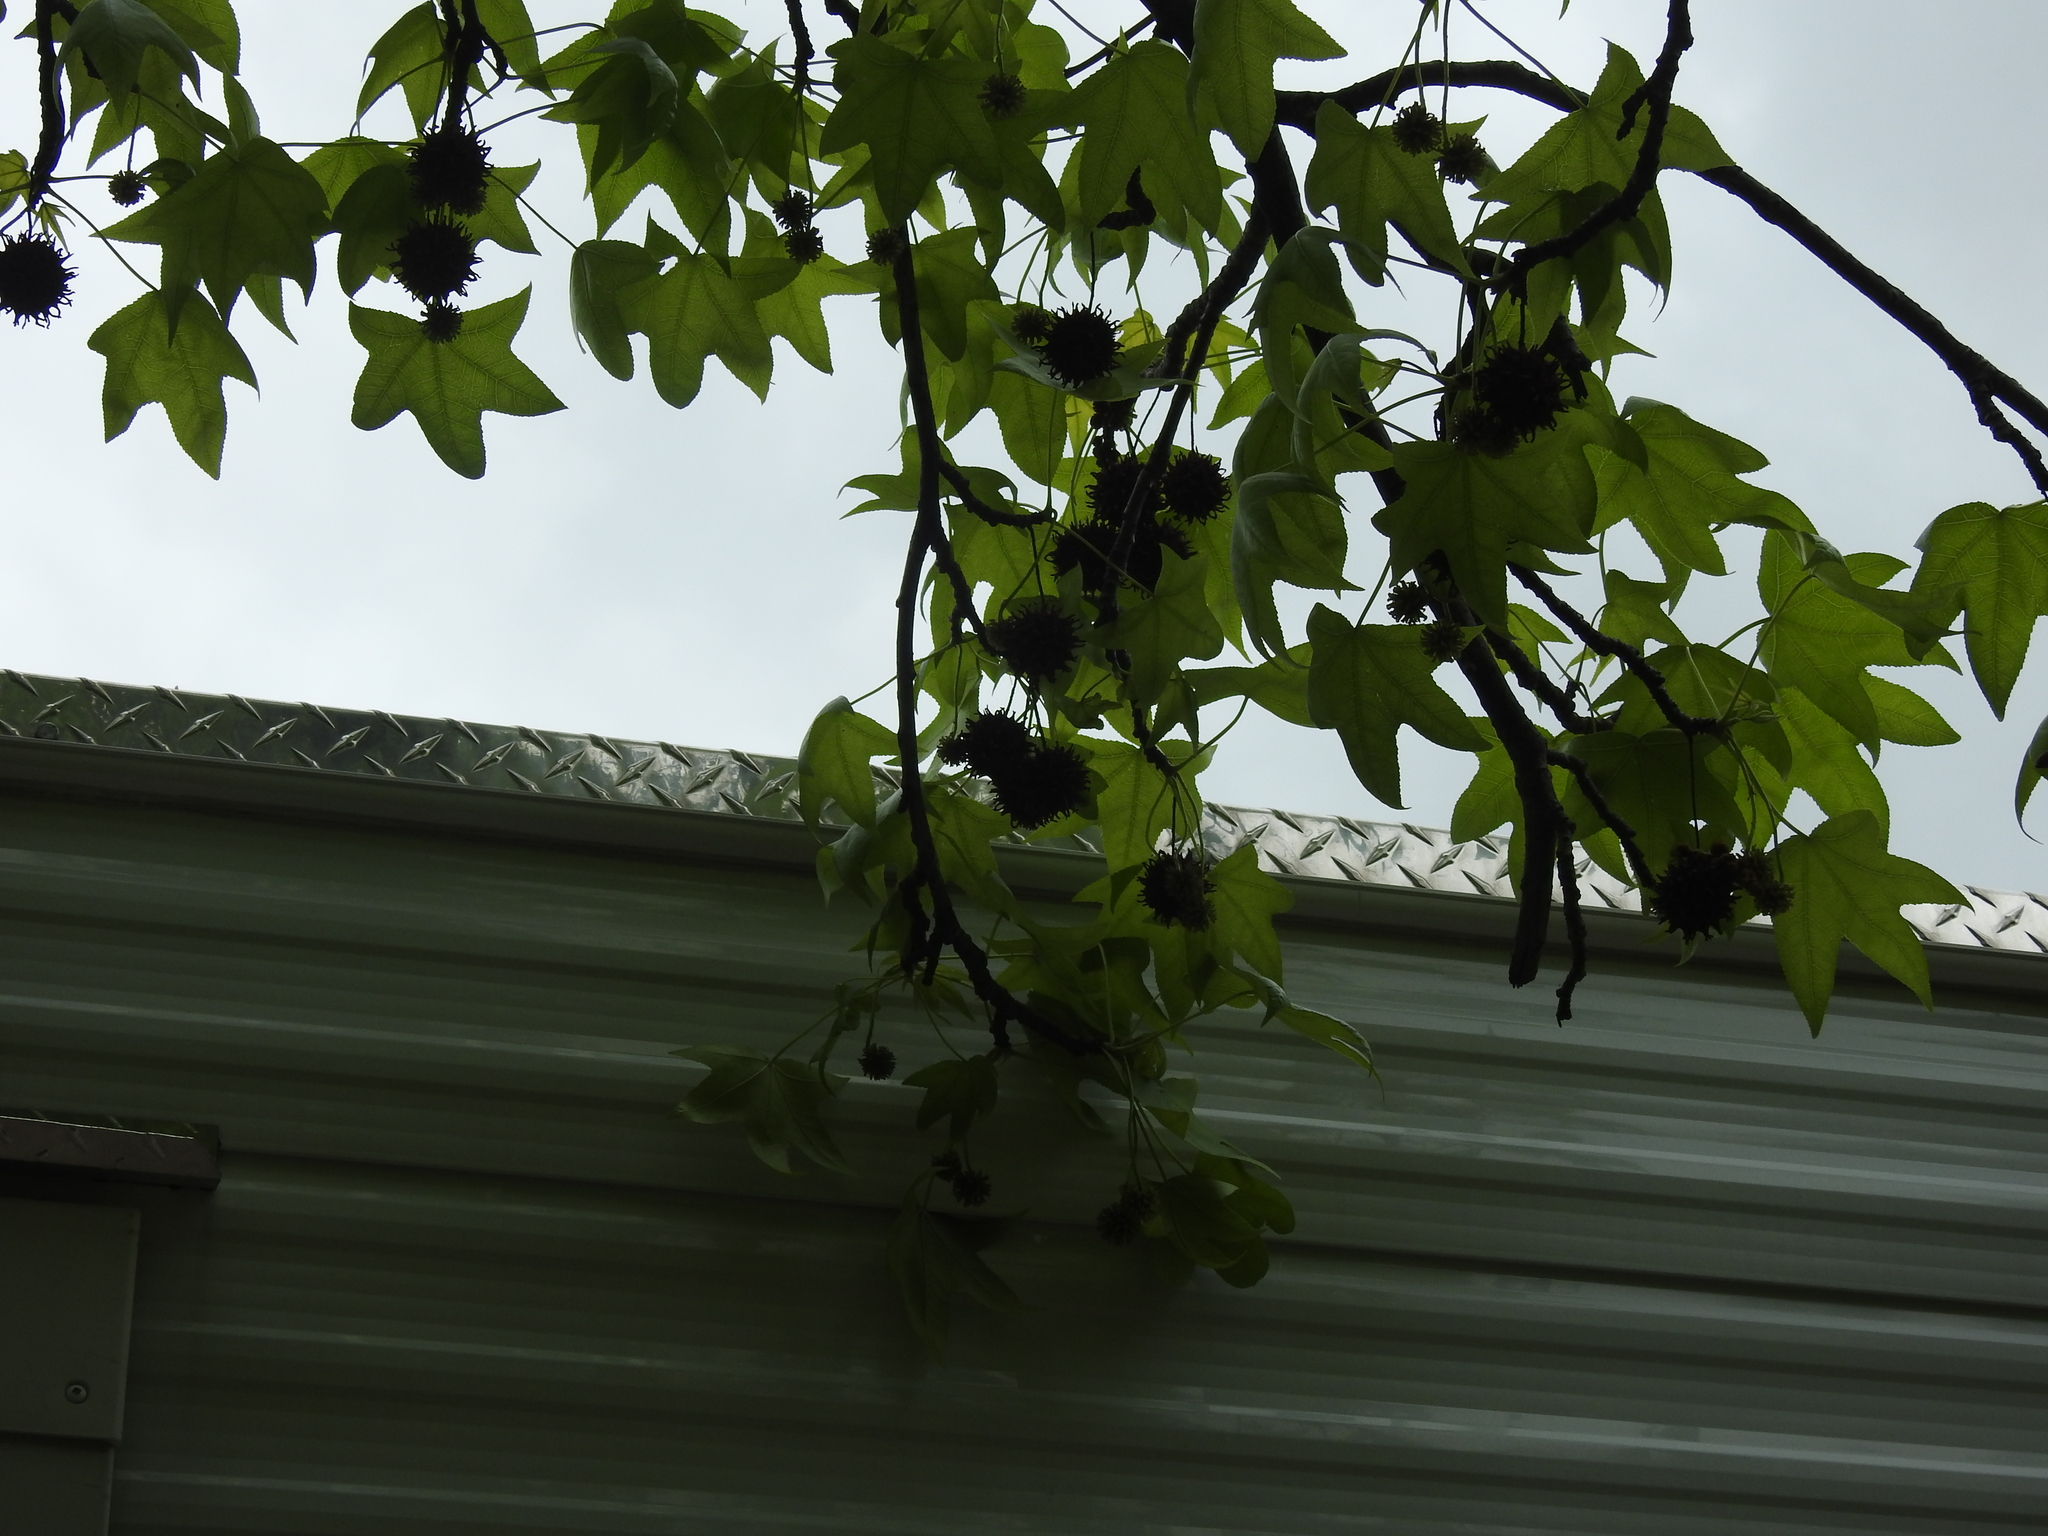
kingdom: Plantae
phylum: Tracheophyta
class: Magnoliopsida
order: Saxifragales
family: Altingiaceae
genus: Liquidambar
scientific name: Liquidambar styraciflua
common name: Sweet gum
